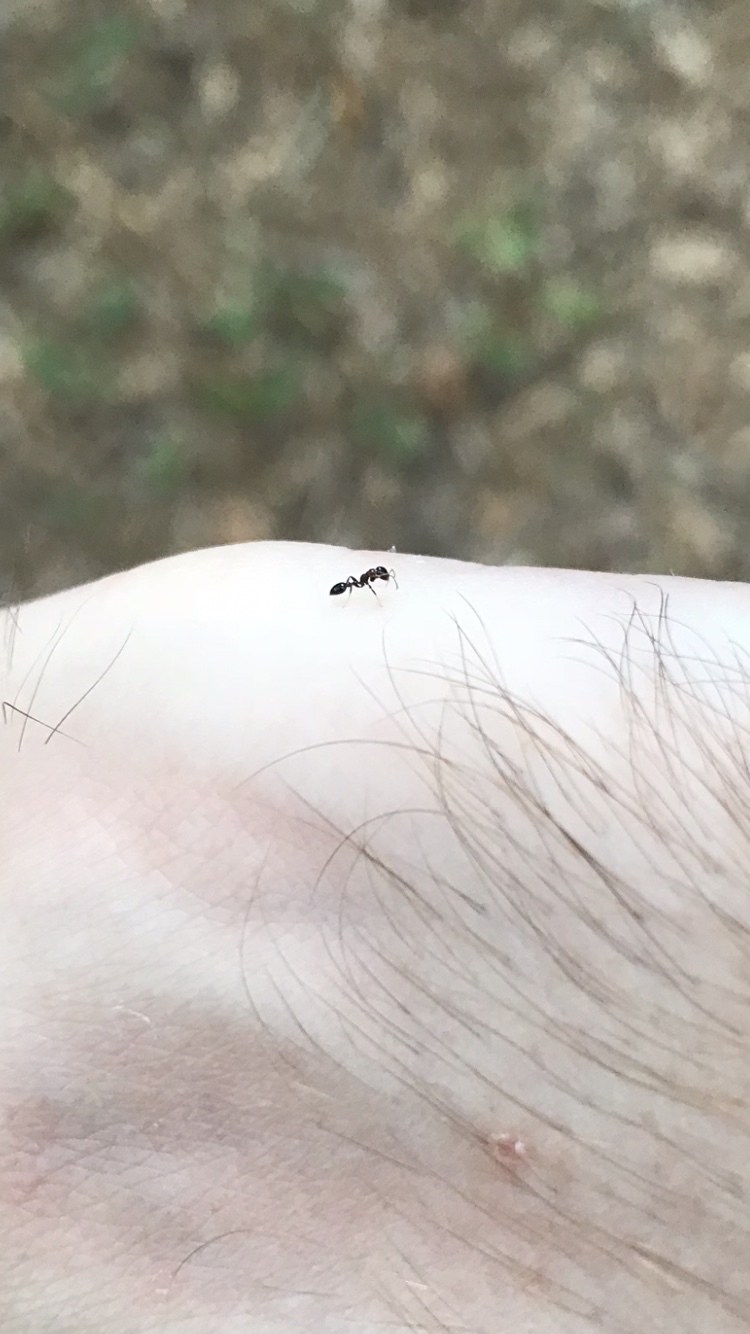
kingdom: Animalia
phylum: Arthropoda
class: Insecta
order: Hymenoptera
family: Formicidae
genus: Pseudomyrmex
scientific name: Pseudomyrmex ejectus
